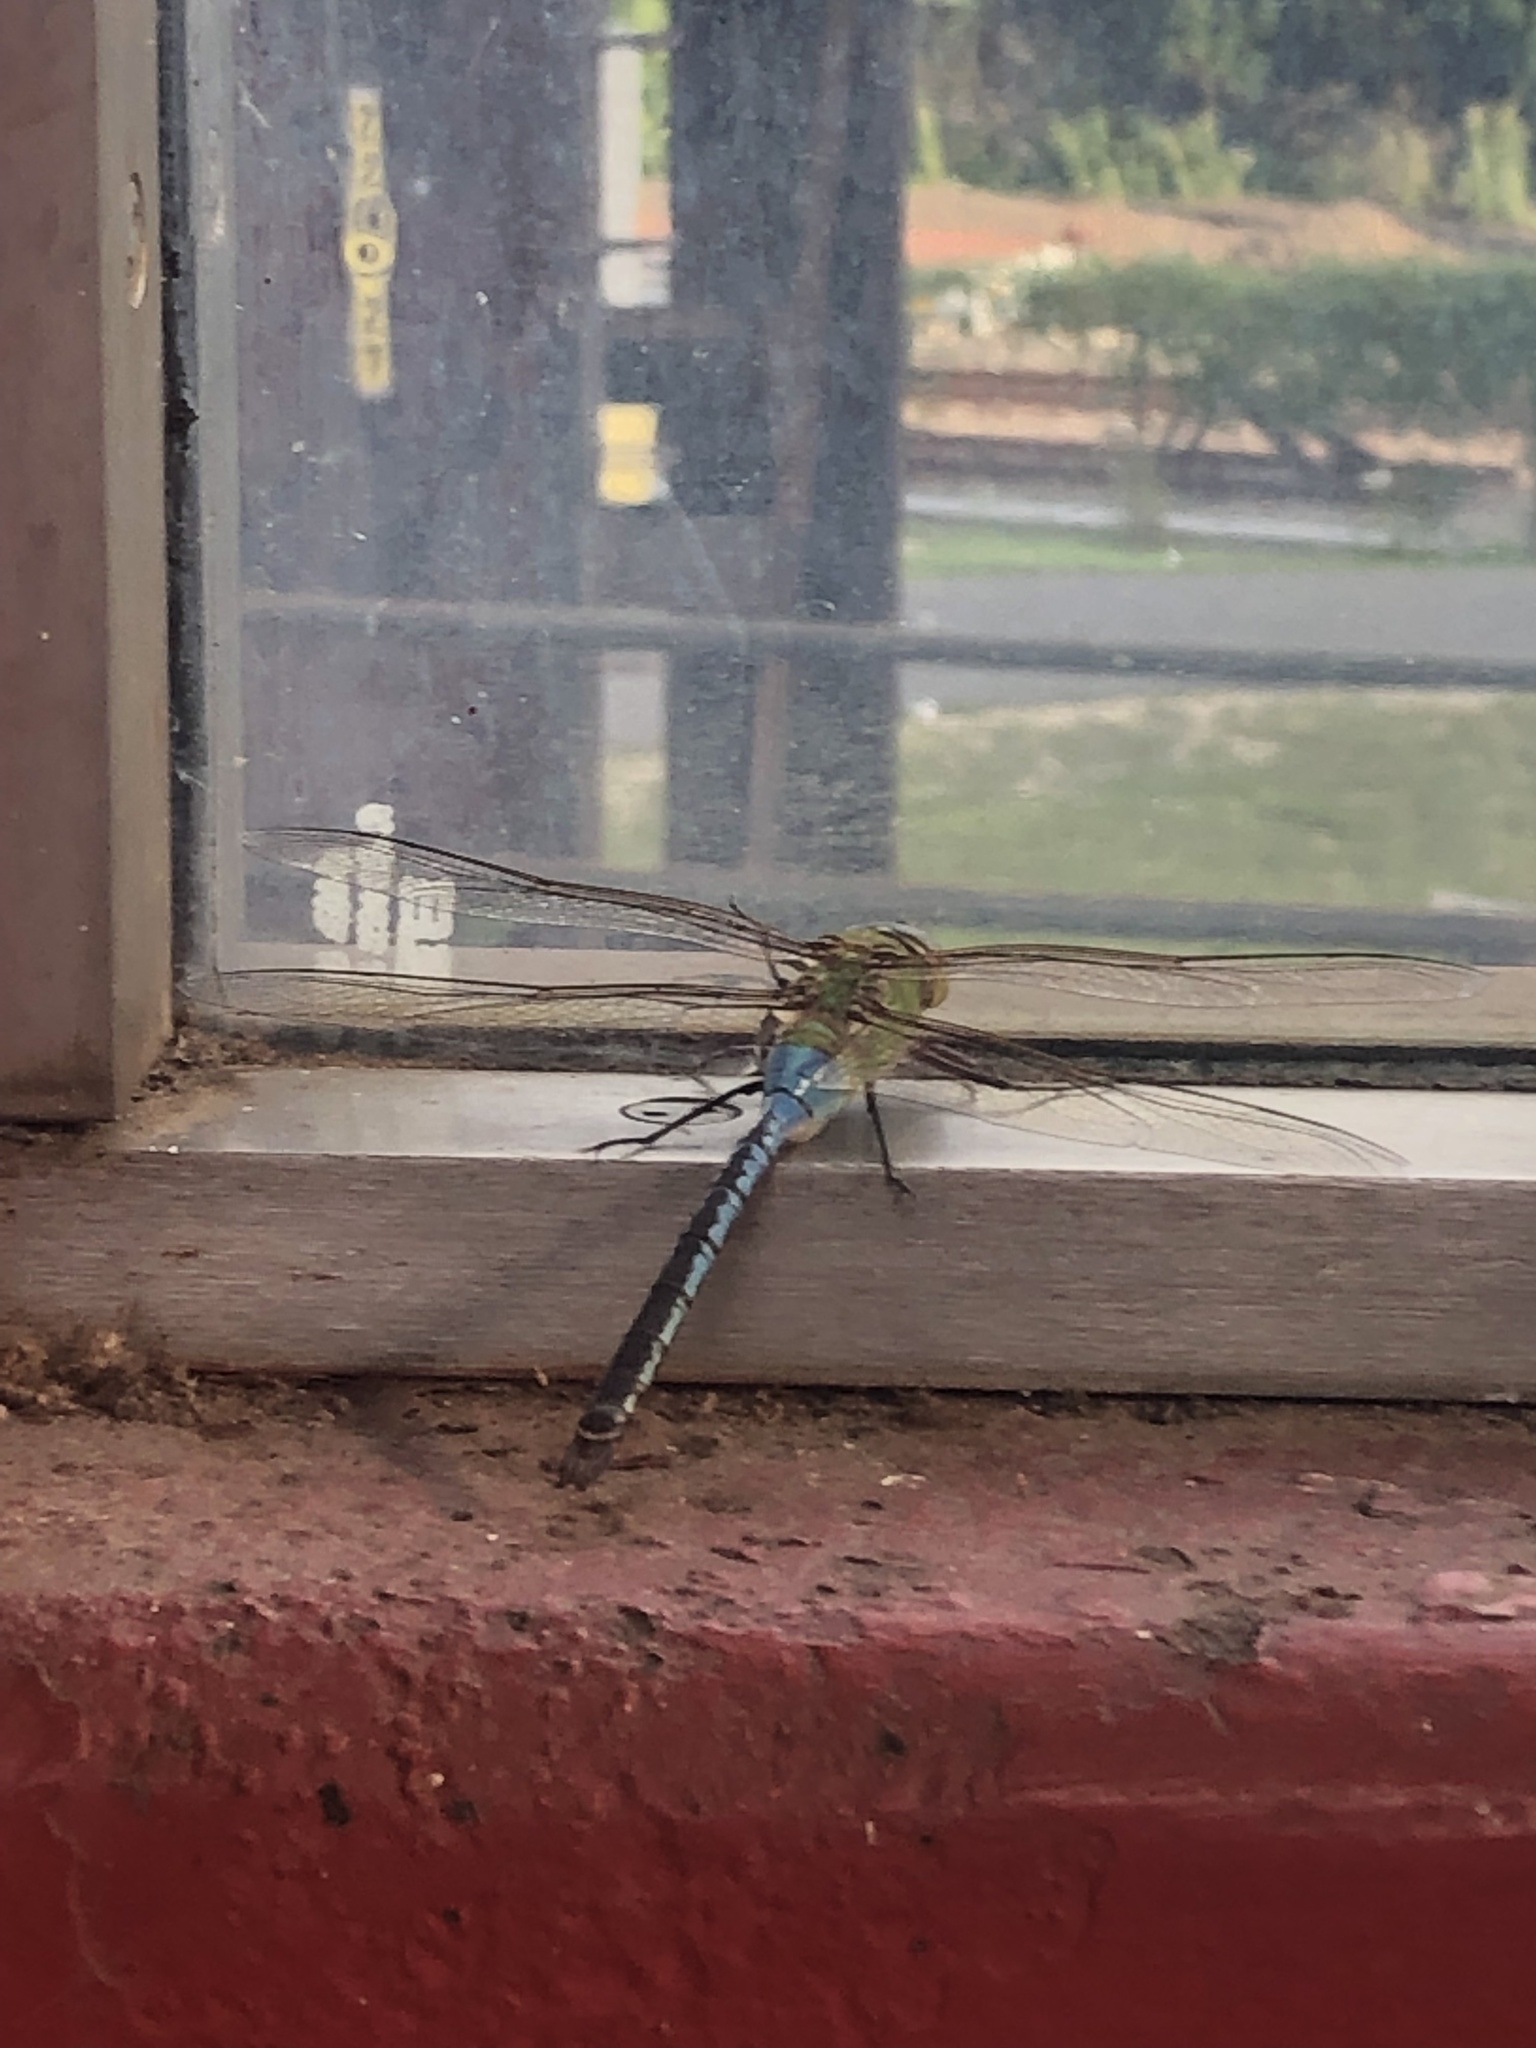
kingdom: Animalia
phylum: Arthropoda
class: Insecta
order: Odonata
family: Aeshnidae
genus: Anax
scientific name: Anax junius
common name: Common green darner
